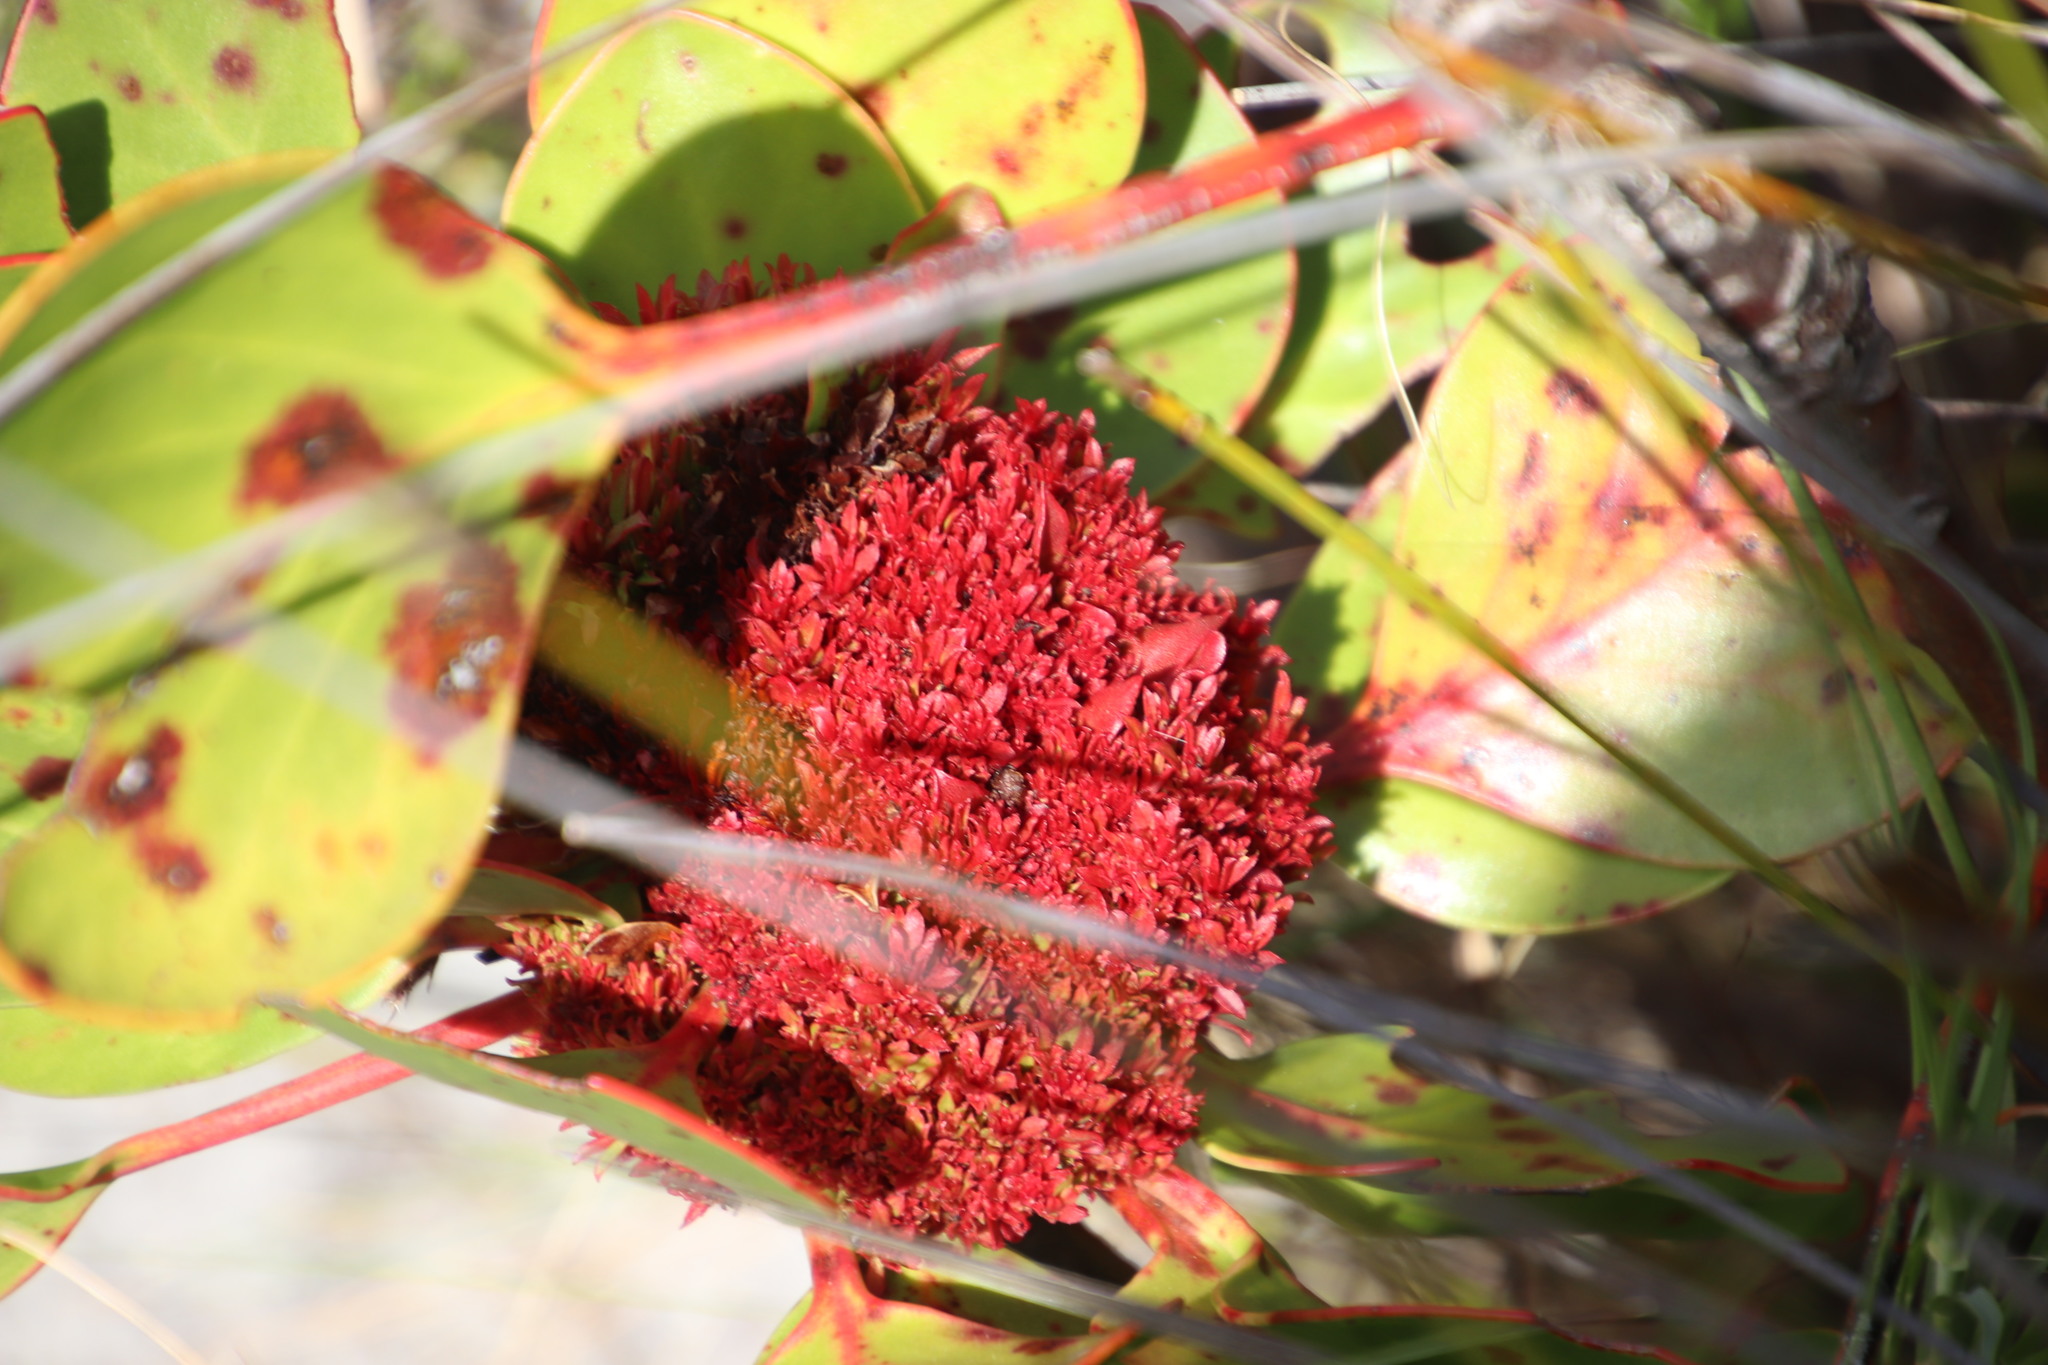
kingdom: Bacteria
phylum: Firmicutes
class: Bacilli
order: Acholeplasmatales
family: Acholeplasmataceae
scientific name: Acholeplasmataceae
